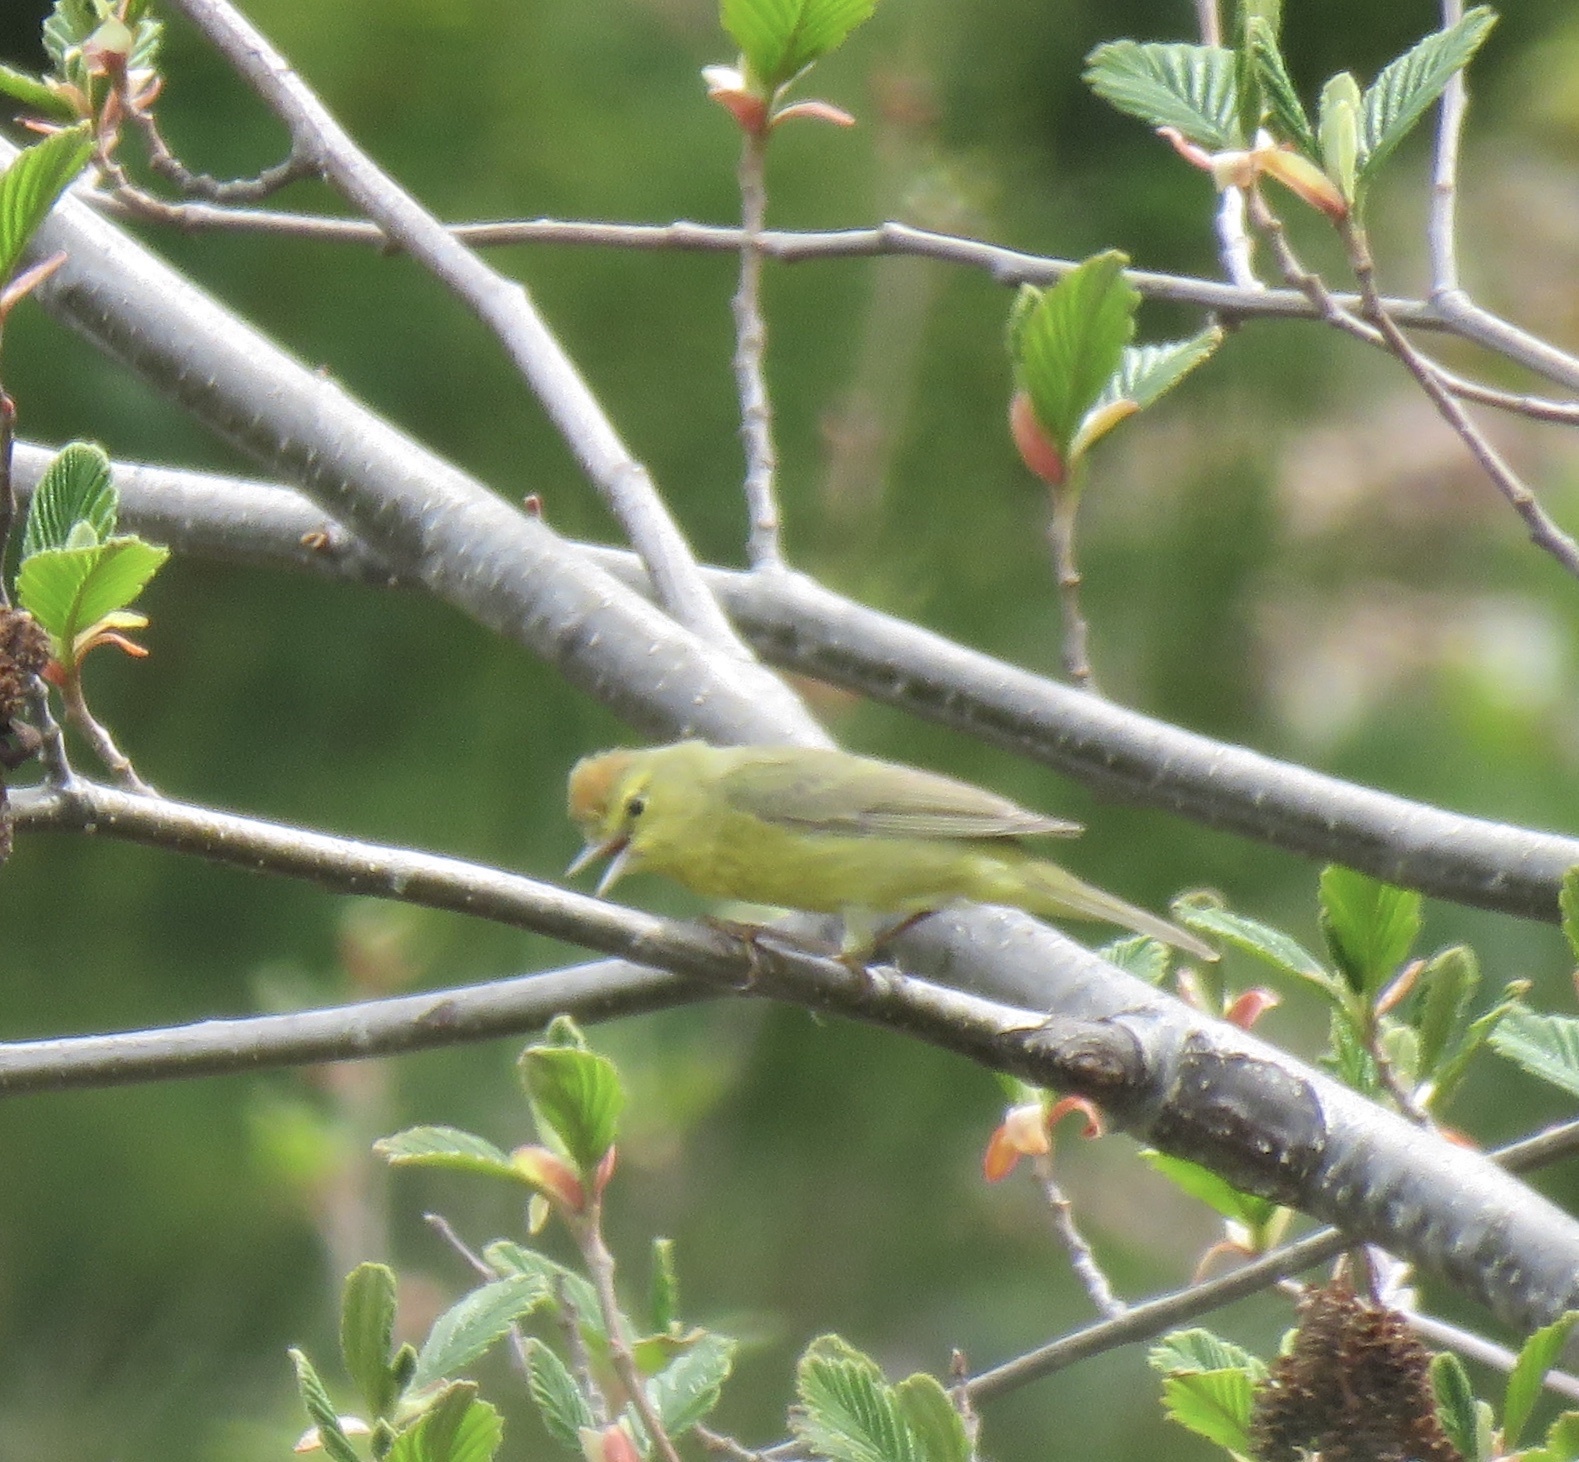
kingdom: Animalia
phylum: Chordata
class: Aves
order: Passeriformes
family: Parulidae
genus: Leiothlypis
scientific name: Leiothlypis celata
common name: Orange-crowned warbler
